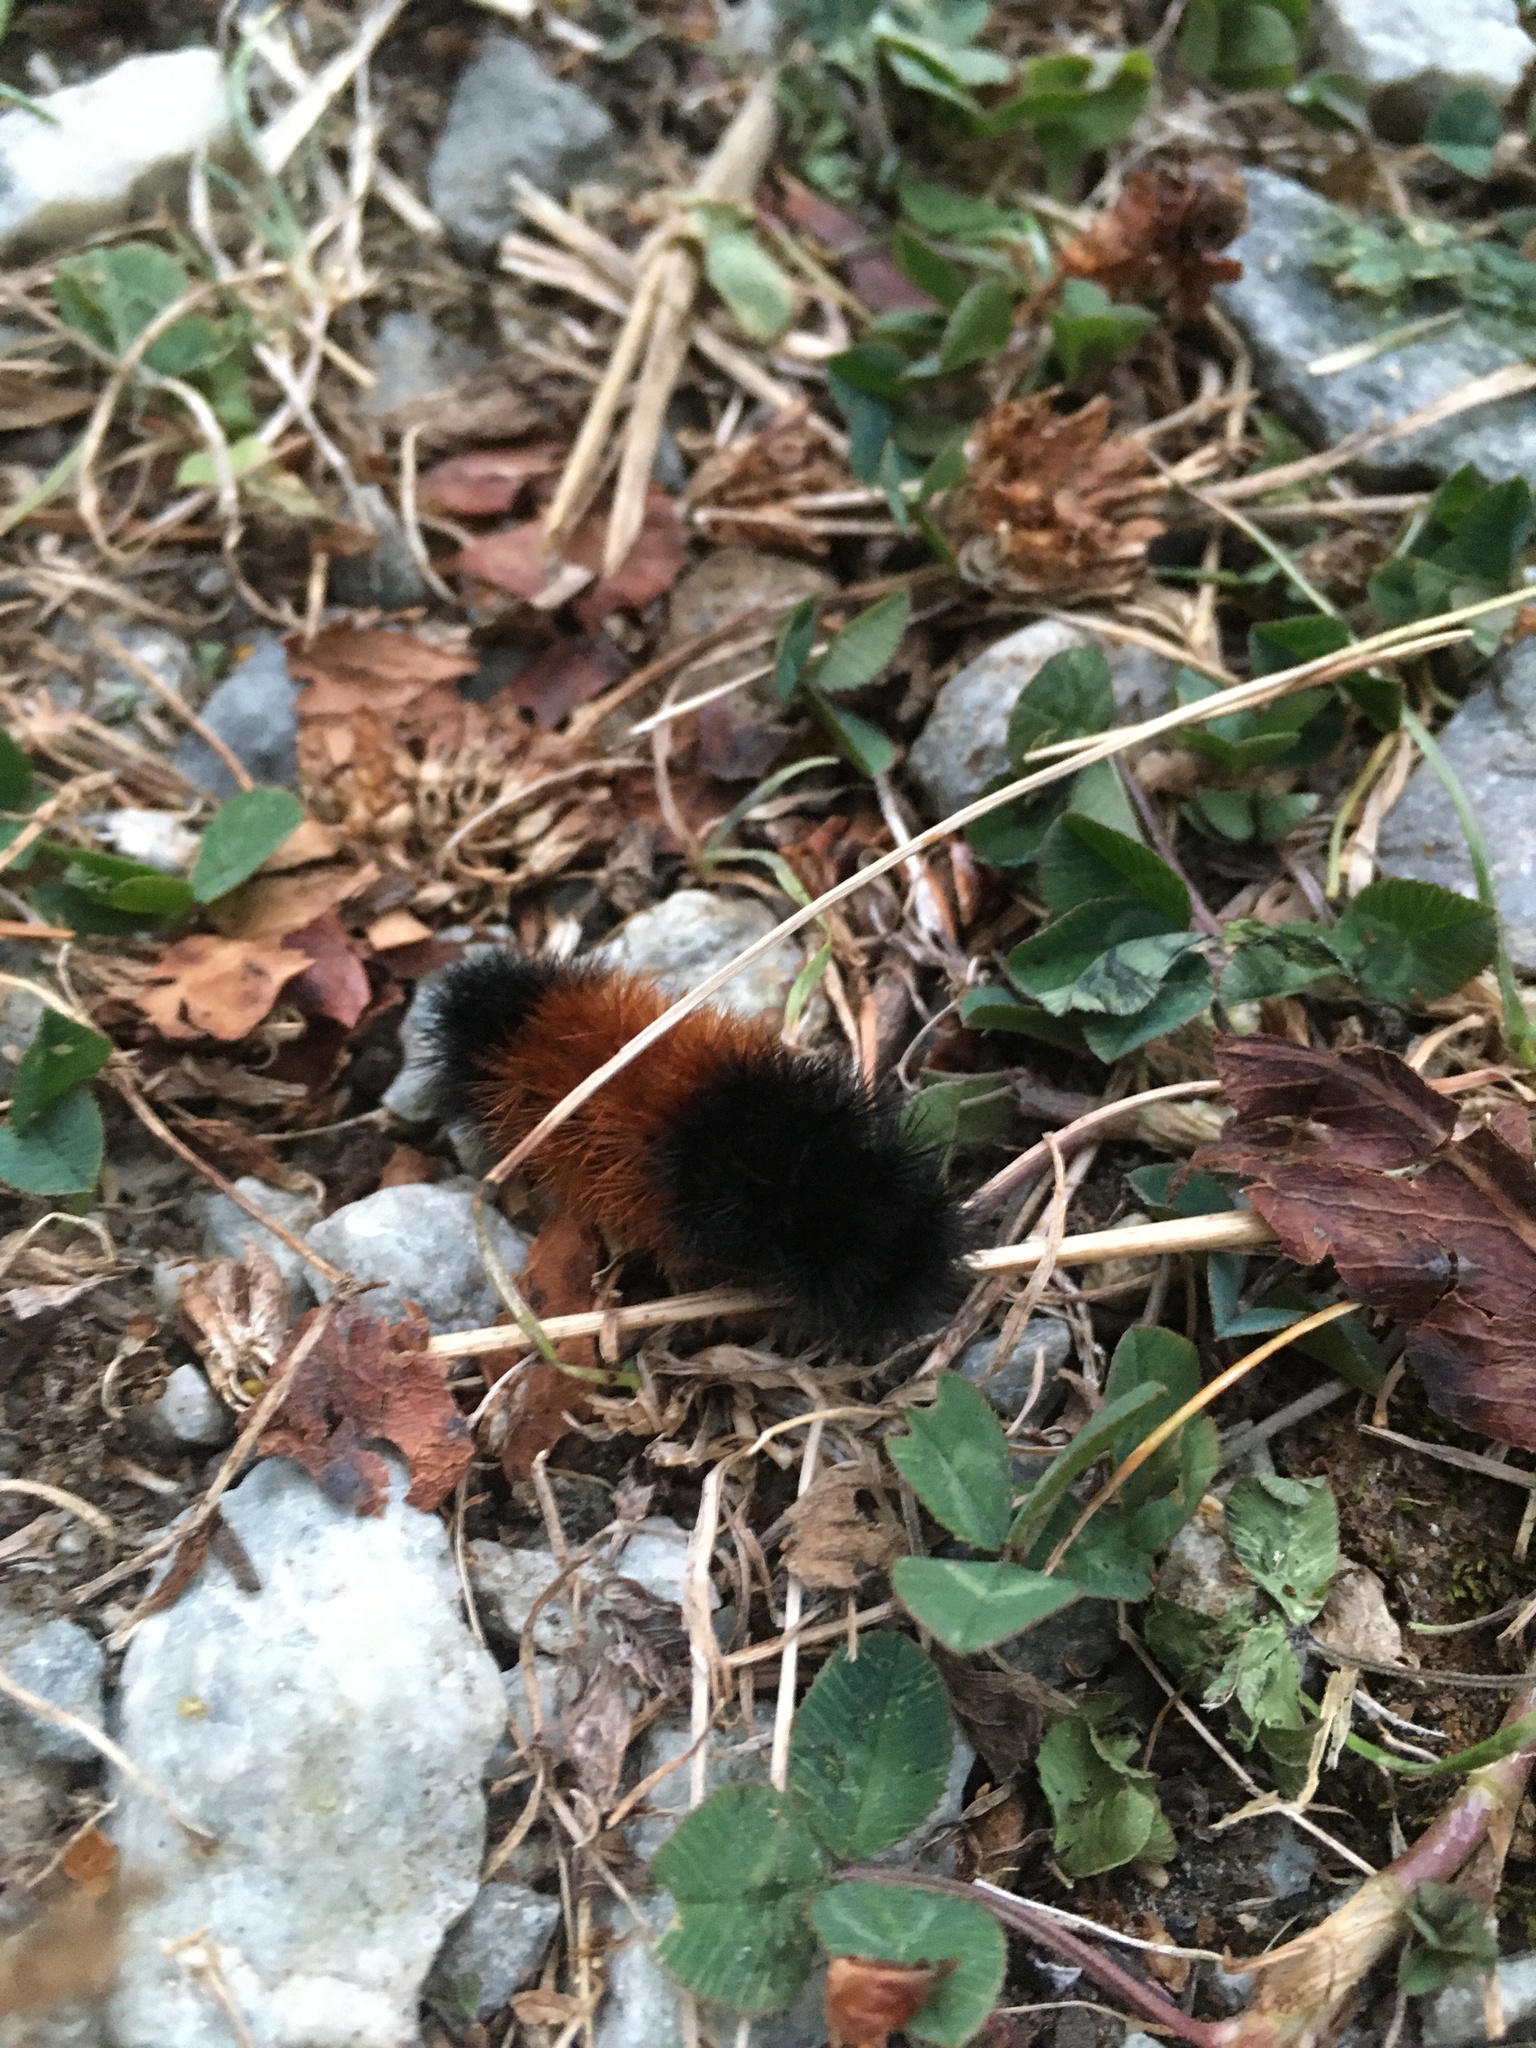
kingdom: Animalia
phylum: Arthropoda
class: Insecta
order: Lepidoptera
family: Erebidae
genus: Pyrrharctia
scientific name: Pyrrharctia isabella
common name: Isabella tiger moth
